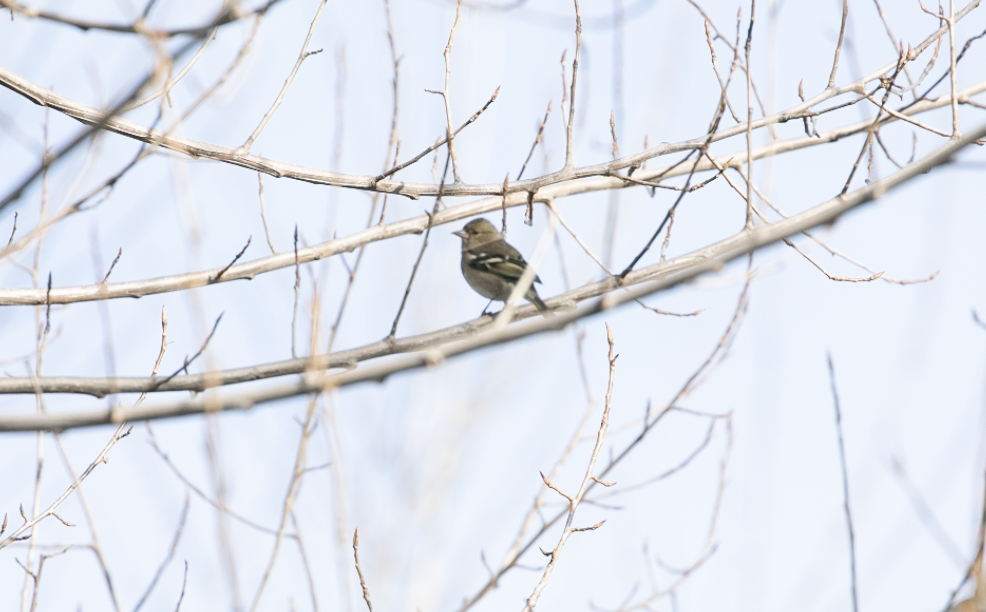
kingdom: Animalia
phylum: Chordata
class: Aves
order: Passeriformes
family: Fringillidae
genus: Fringilla
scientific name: Fringilla coelebs
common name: Common chaffinch
